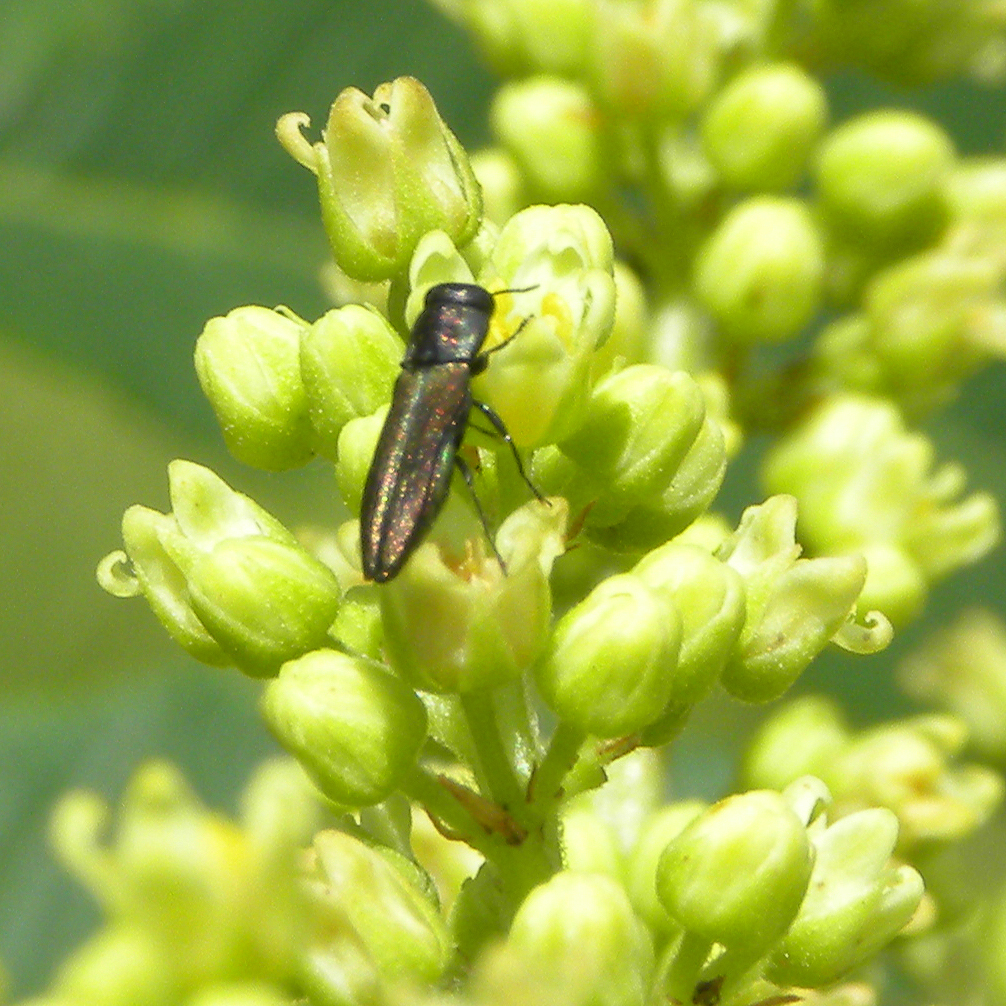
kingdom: Animalia
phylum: Arthropoda
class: Insecta
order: Coleoptera
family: Buprestidae
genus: Agrilaxia
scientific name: Agrilaxia flavimana
